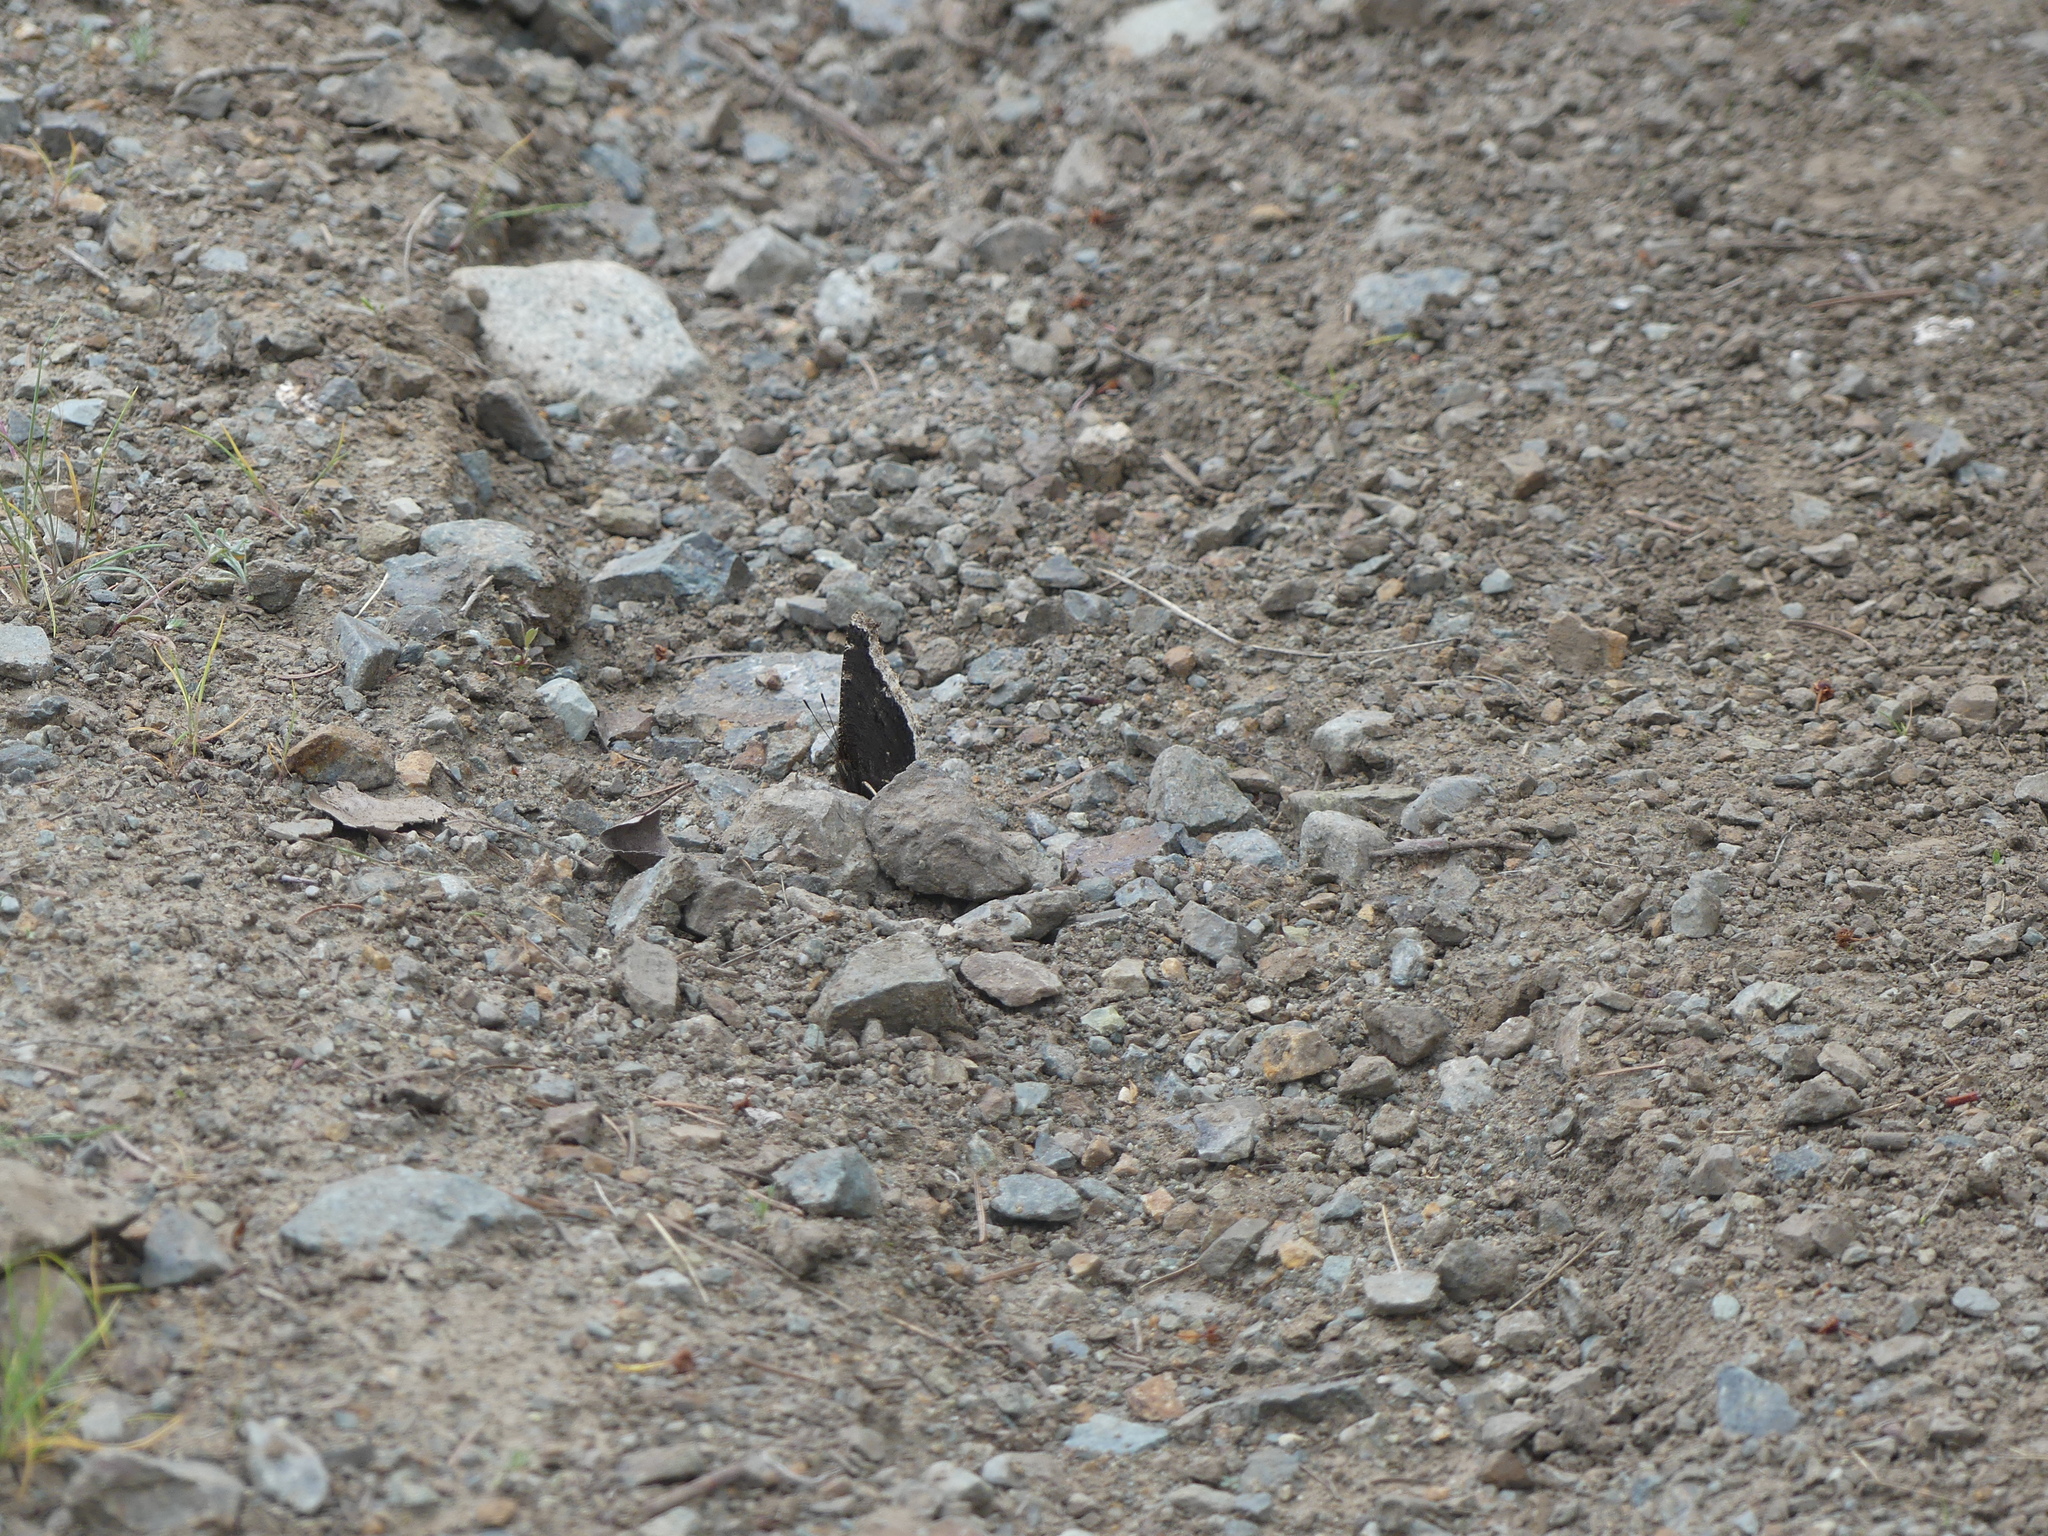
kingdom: Animalia
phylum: Arthropoda
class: Insecta
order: Lepidoptera
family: Nymphalidae
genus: Nymphalis
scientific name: Nymphalis antiopa
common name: Camberwell beauty
